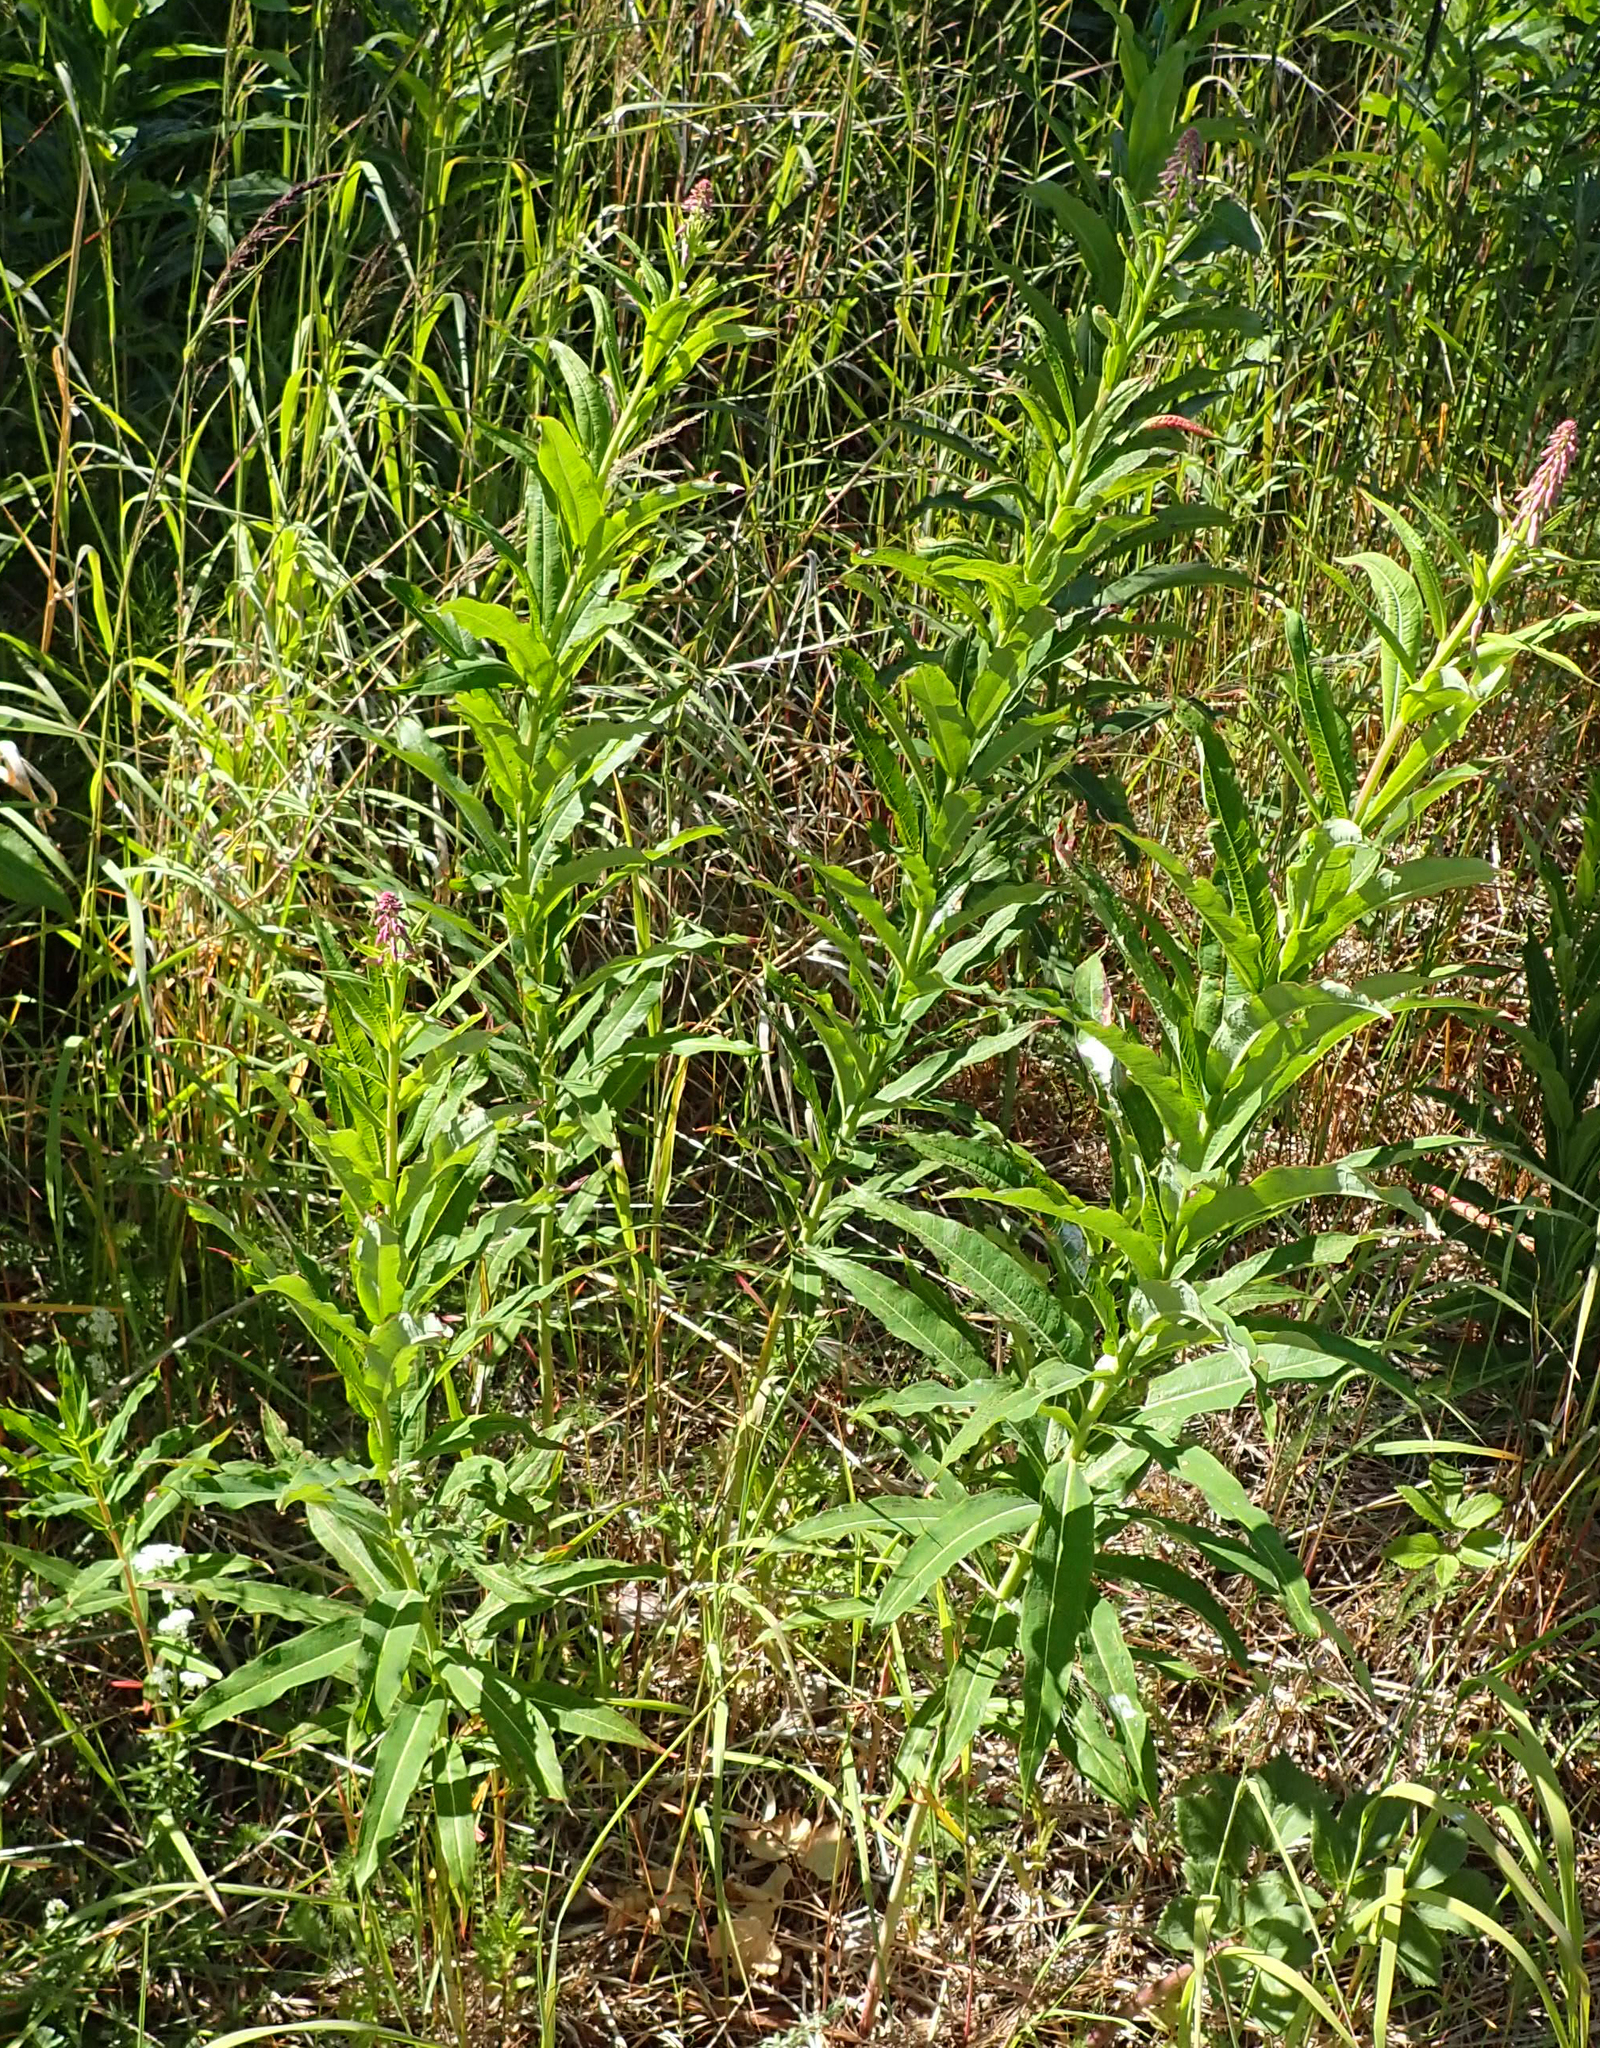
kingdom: Plantae
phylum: Tracheophyta
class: Magnoliopsida
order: Myrtales
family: Onagraceae
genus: Chamaenerion
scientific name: Chamaenerion angustifolium
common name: Fireweed
